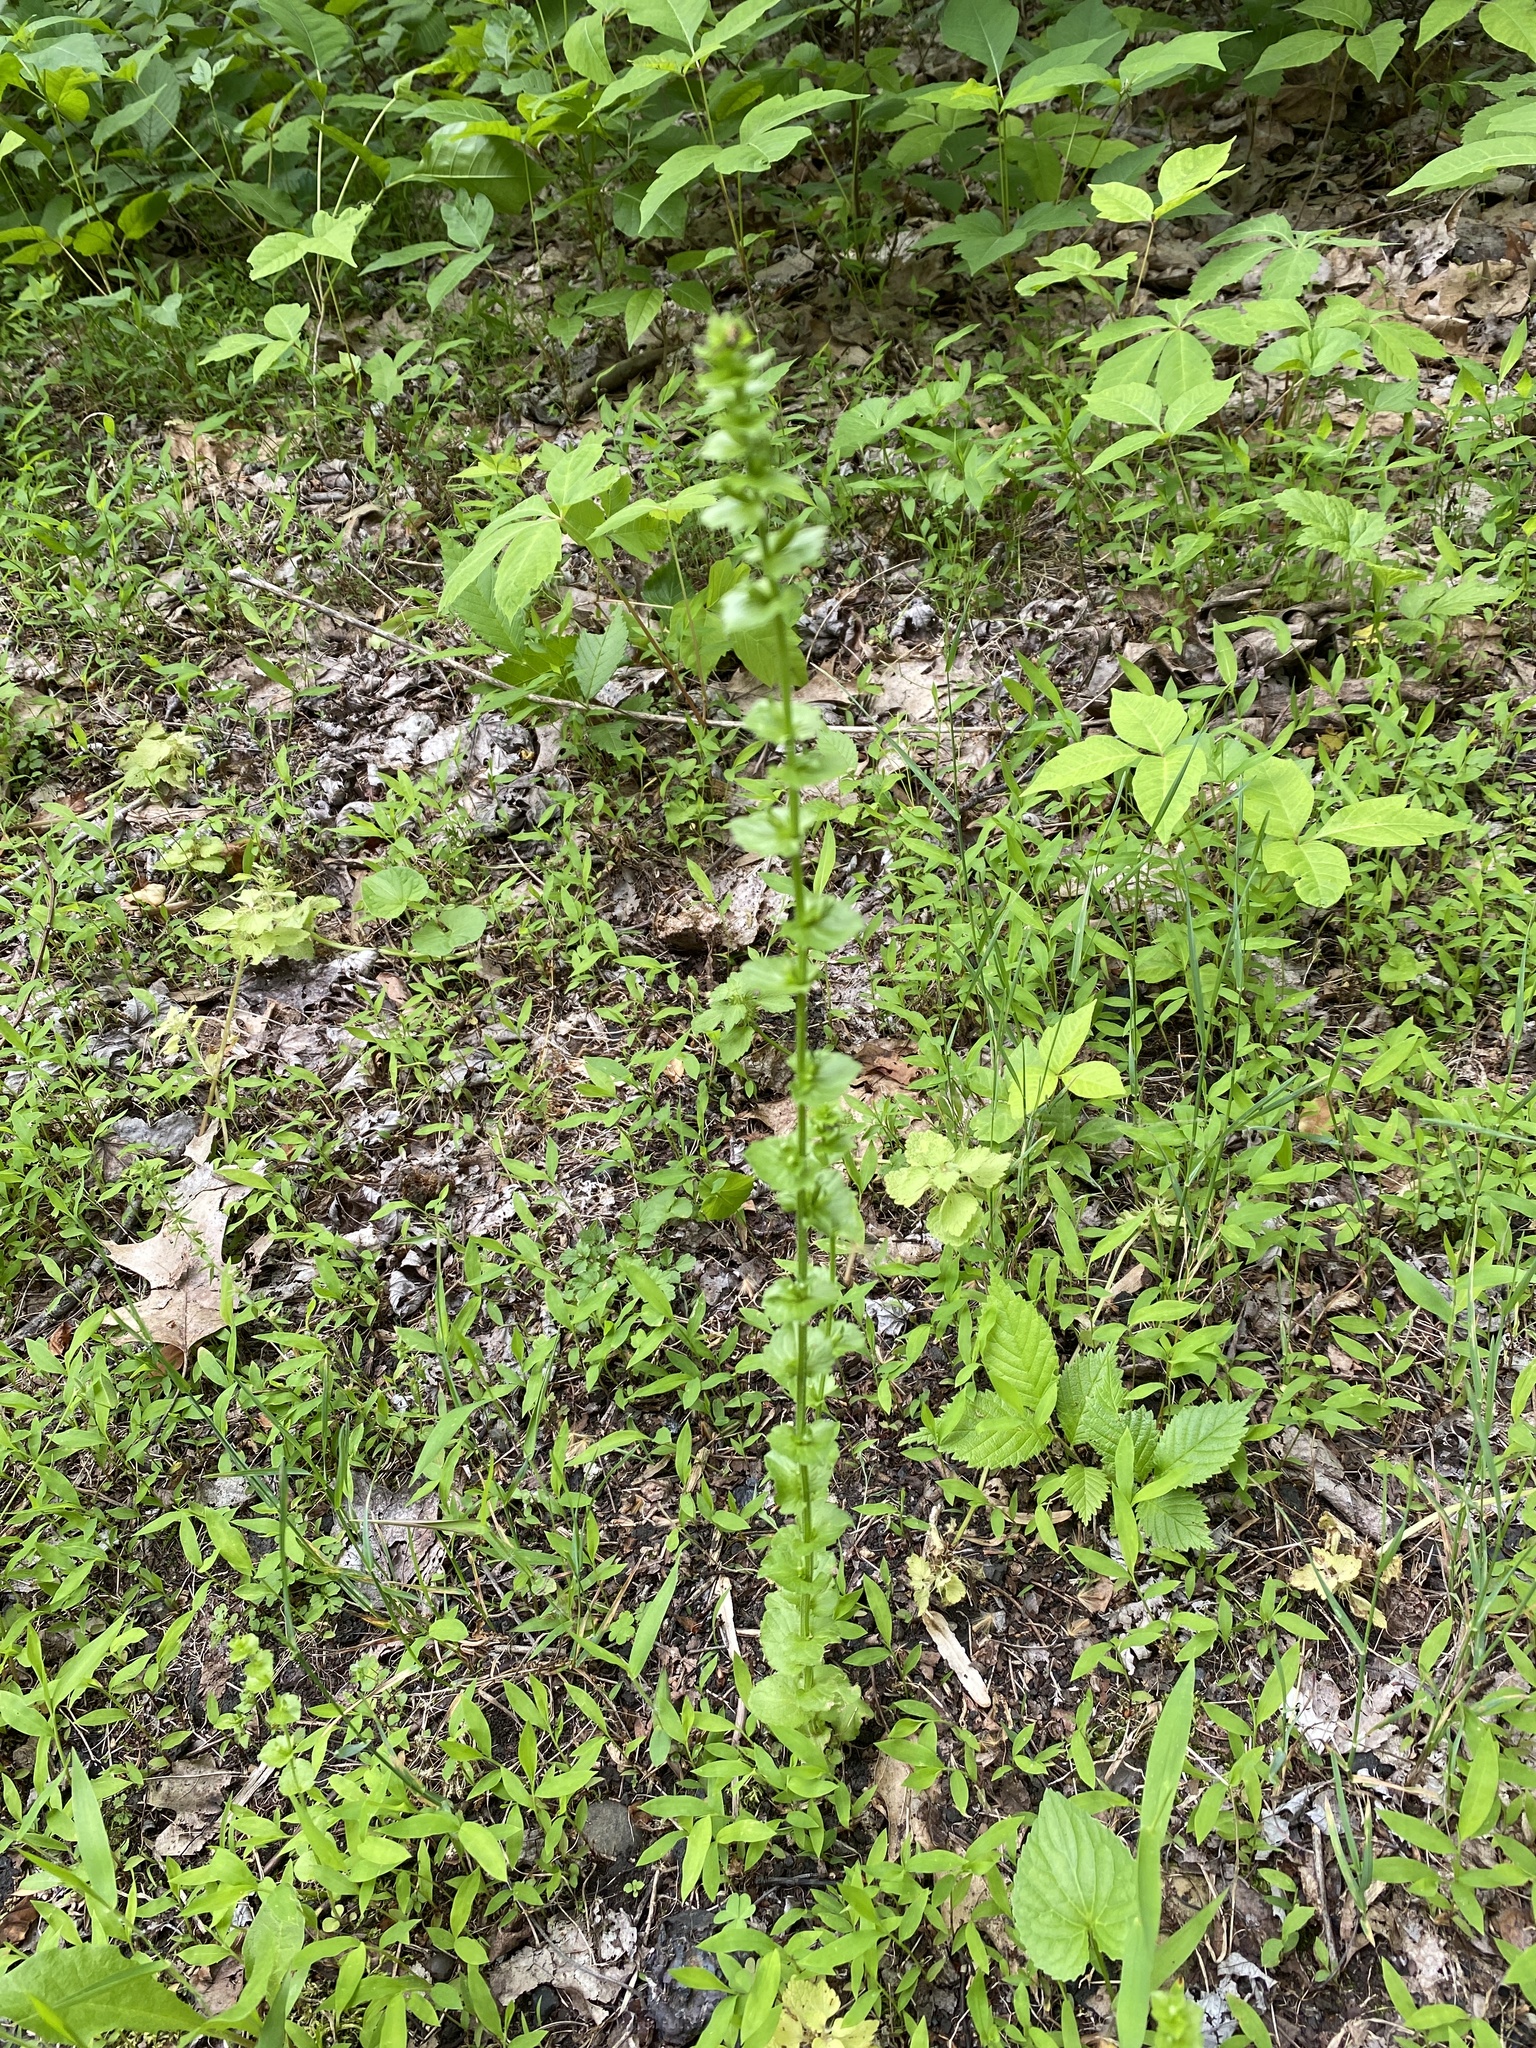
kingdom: Plantae
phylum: Tracheophyta
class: Magnoliopsida
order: Asterales
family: Campanulaceae
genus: Triodanis
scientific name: Triodanis perfoliata
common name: Clasping venus' looking-glass
